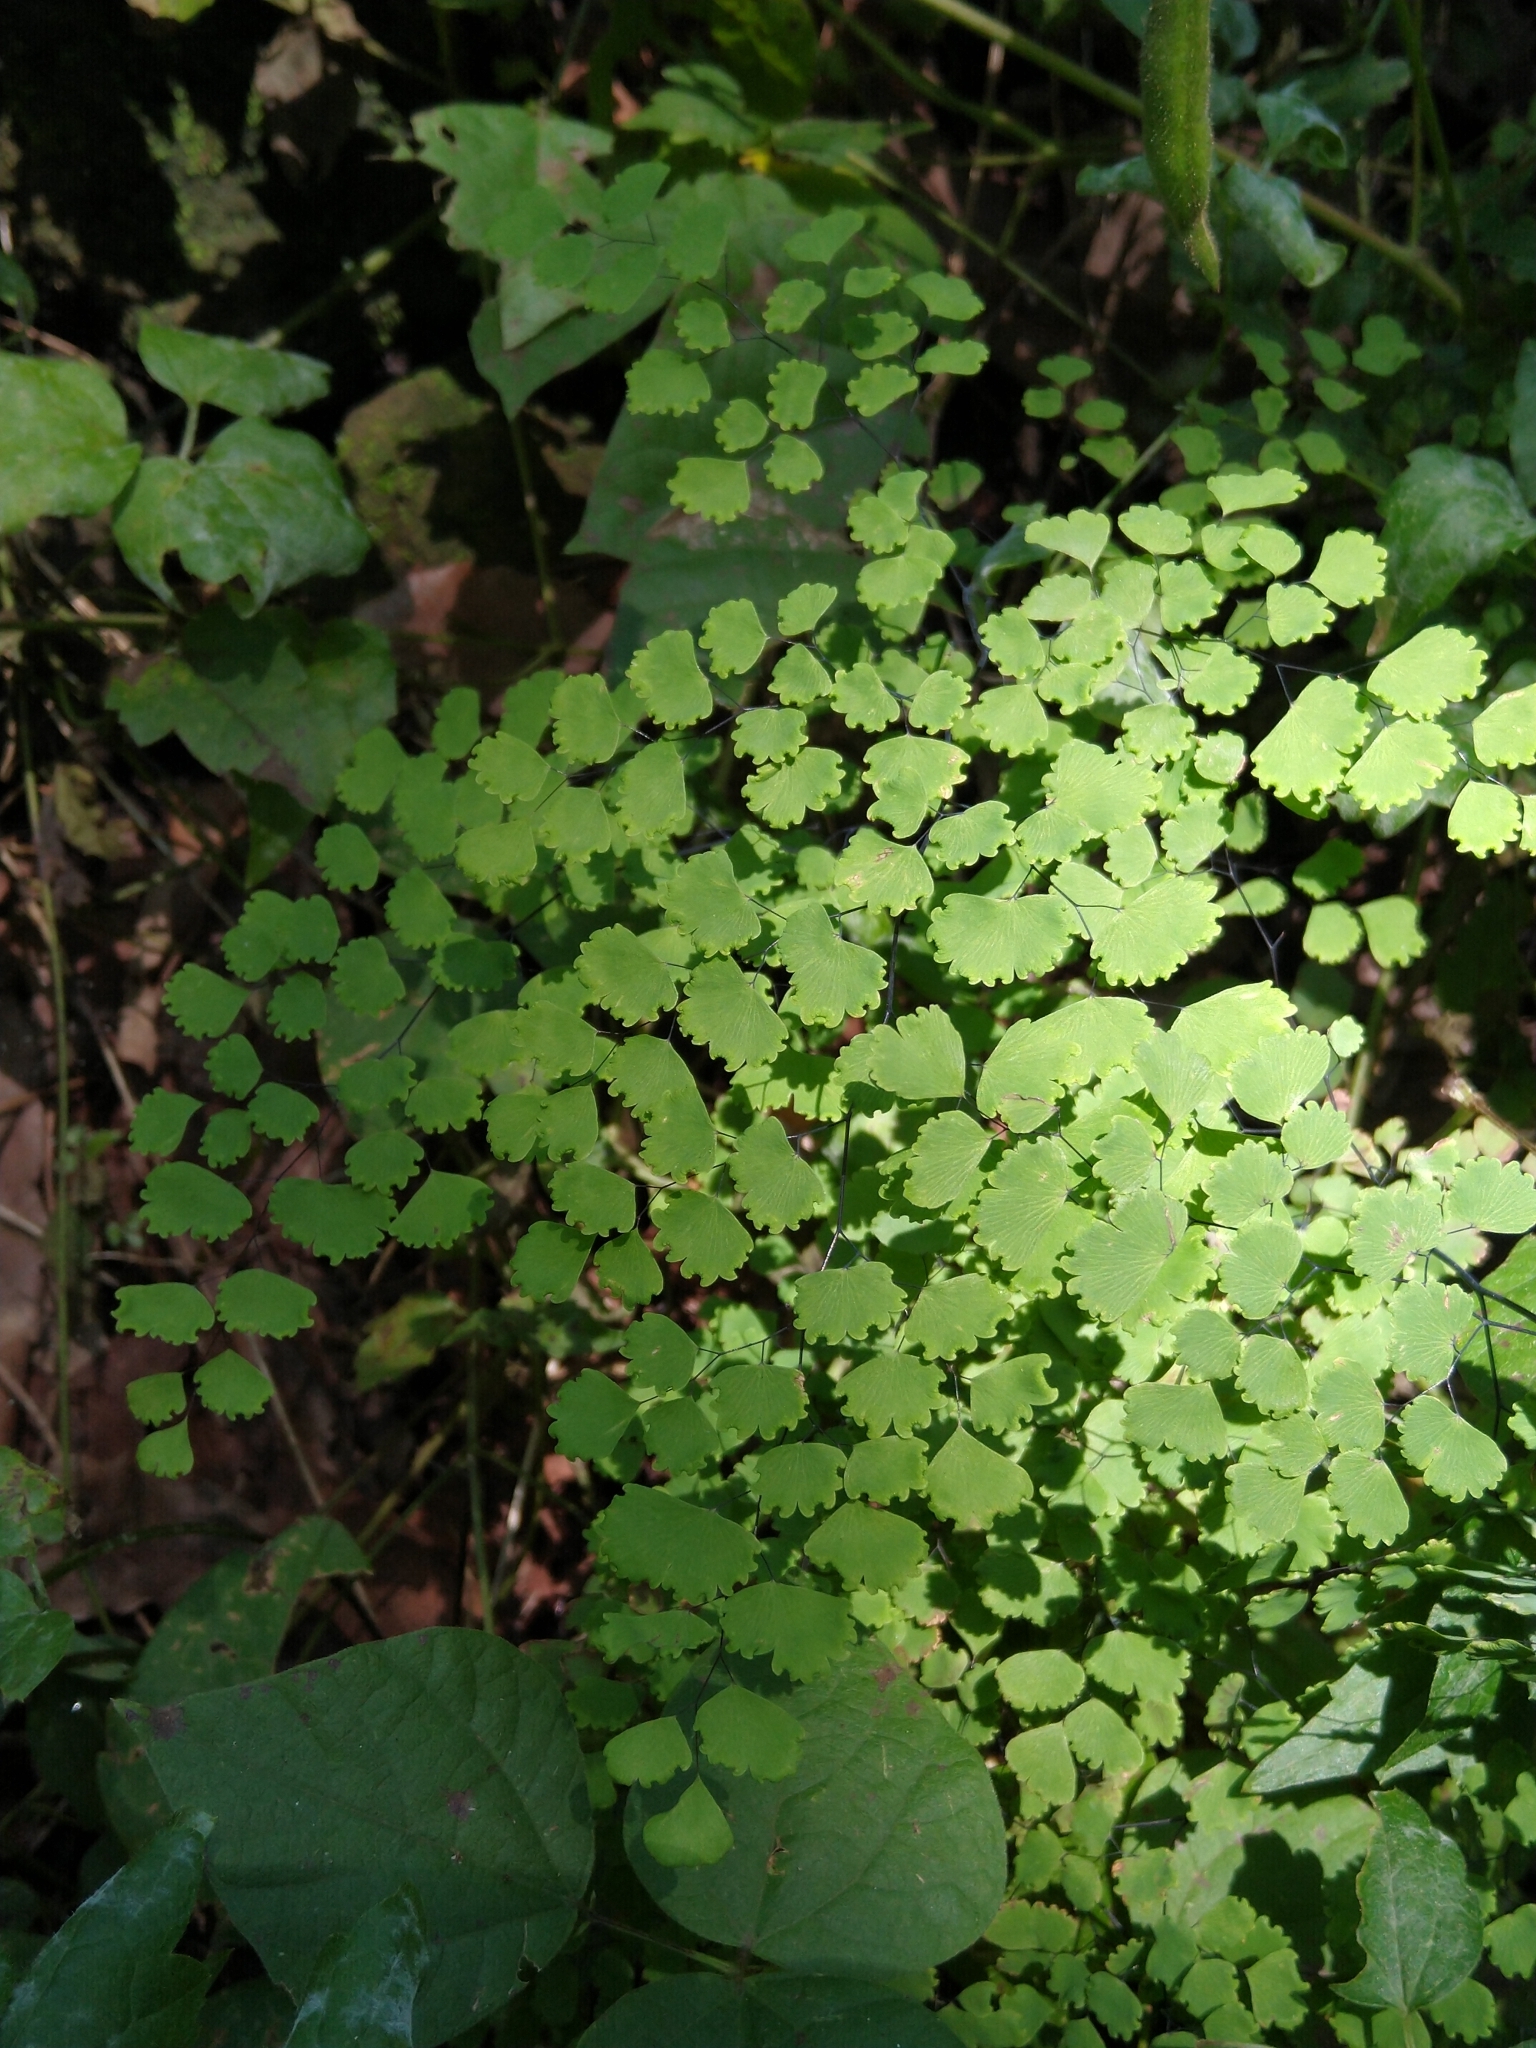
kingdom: Plantae
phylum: Tracheophyta
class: Polypodiopsida
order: Polypodiales
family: Pteridaceae
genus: Adiantum
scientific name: Adiantum poiretii
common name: Mexican maidenhair
